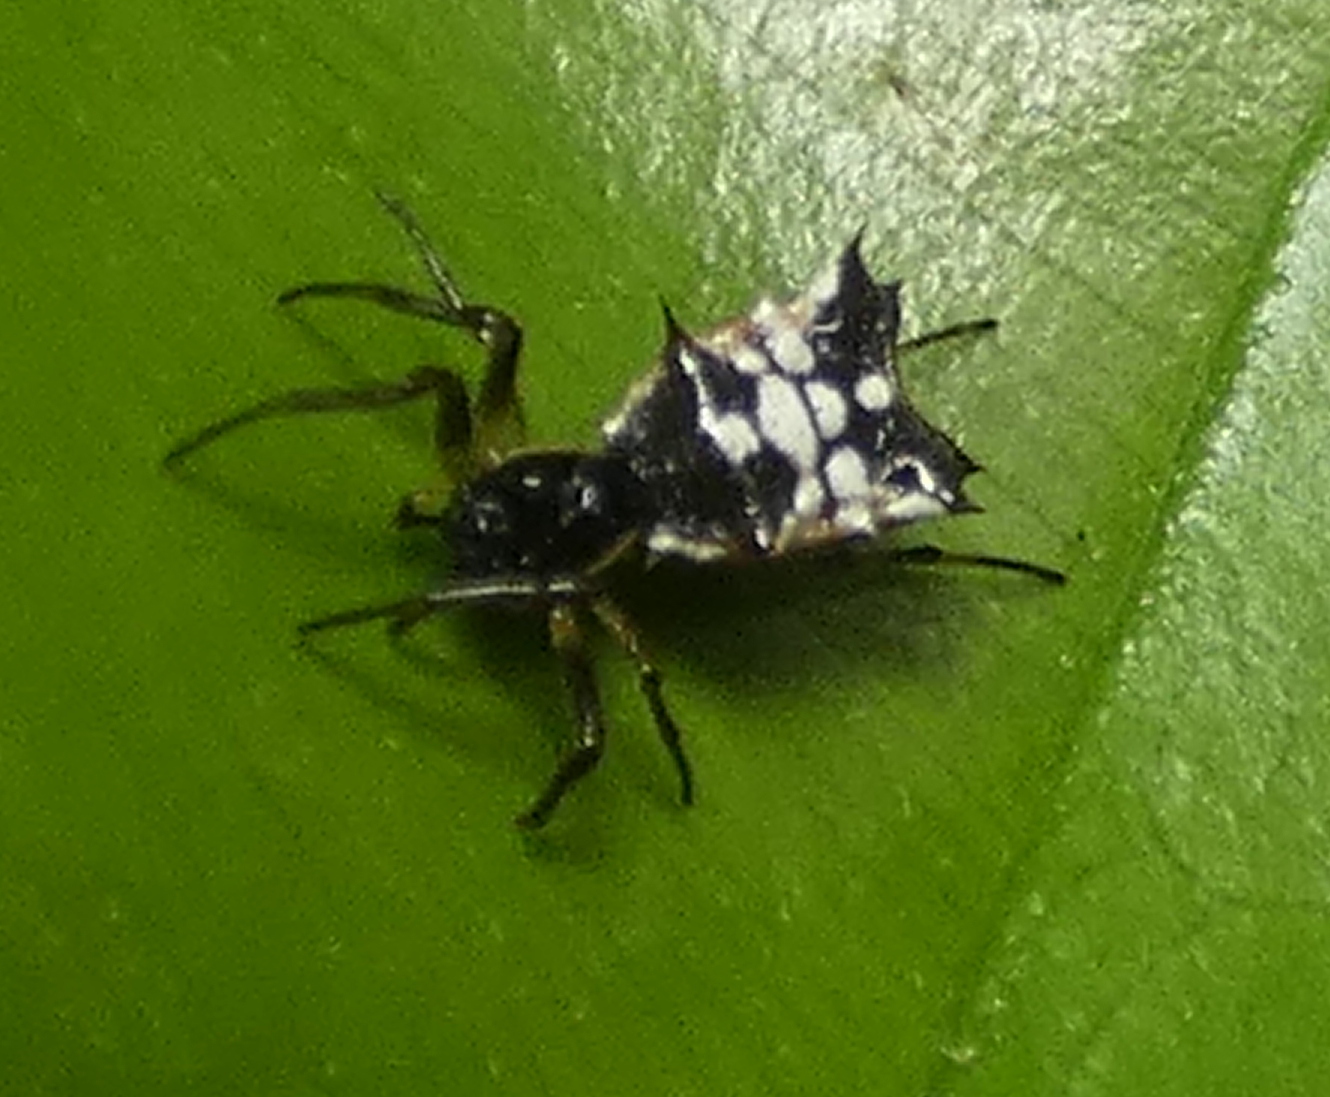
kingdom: Animalia
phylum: Arthropoda
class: Arachnida
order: Araneae
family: Araneidae
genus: Micrathena
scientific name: Micrathena picta
